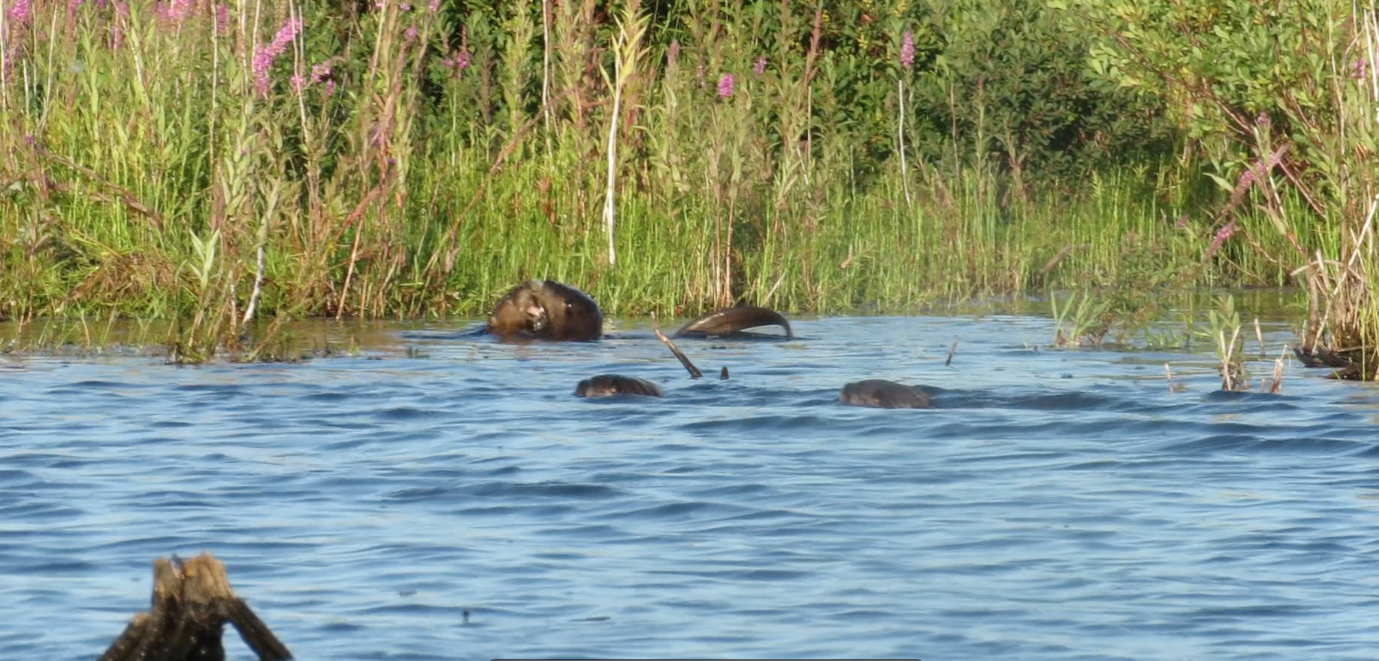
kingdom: Animalia
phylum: Chordata
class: Mammalia
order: Carnivora
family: Mustelidae
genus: Lontra
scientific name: Lontra canadensis
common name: North american river otter
